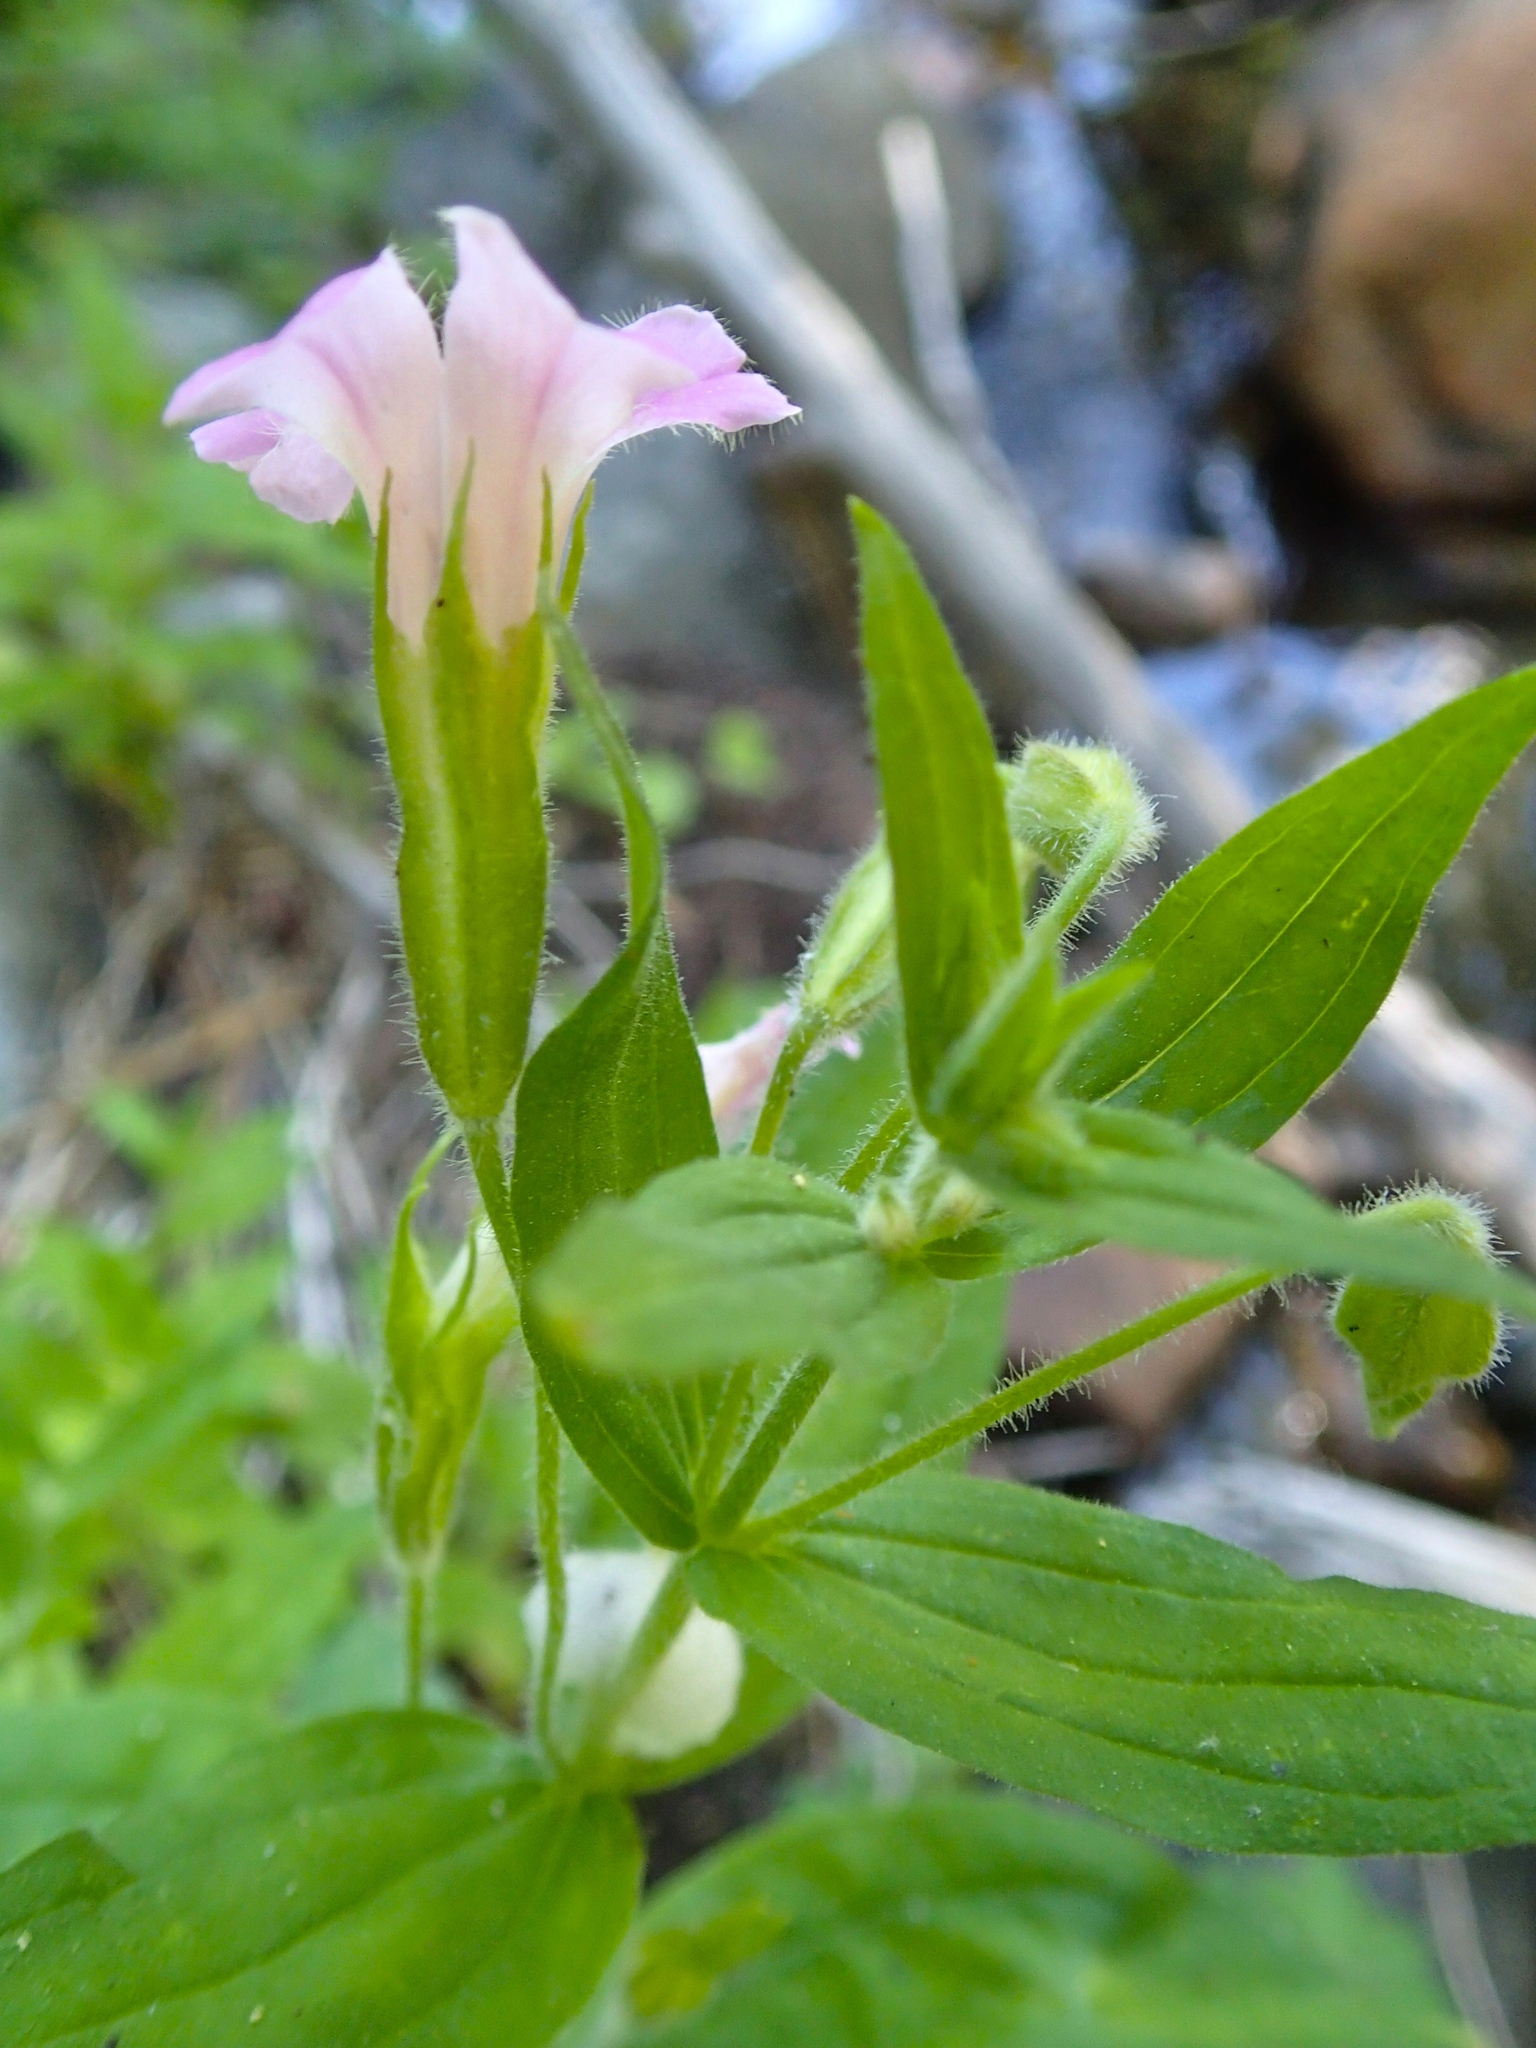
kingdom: Plantae
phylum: Tracheophyta
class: Magnoliopsida
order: Lamiales
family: Phrymaceae
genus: Erythranthe
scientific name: Erythranthe erubescens
